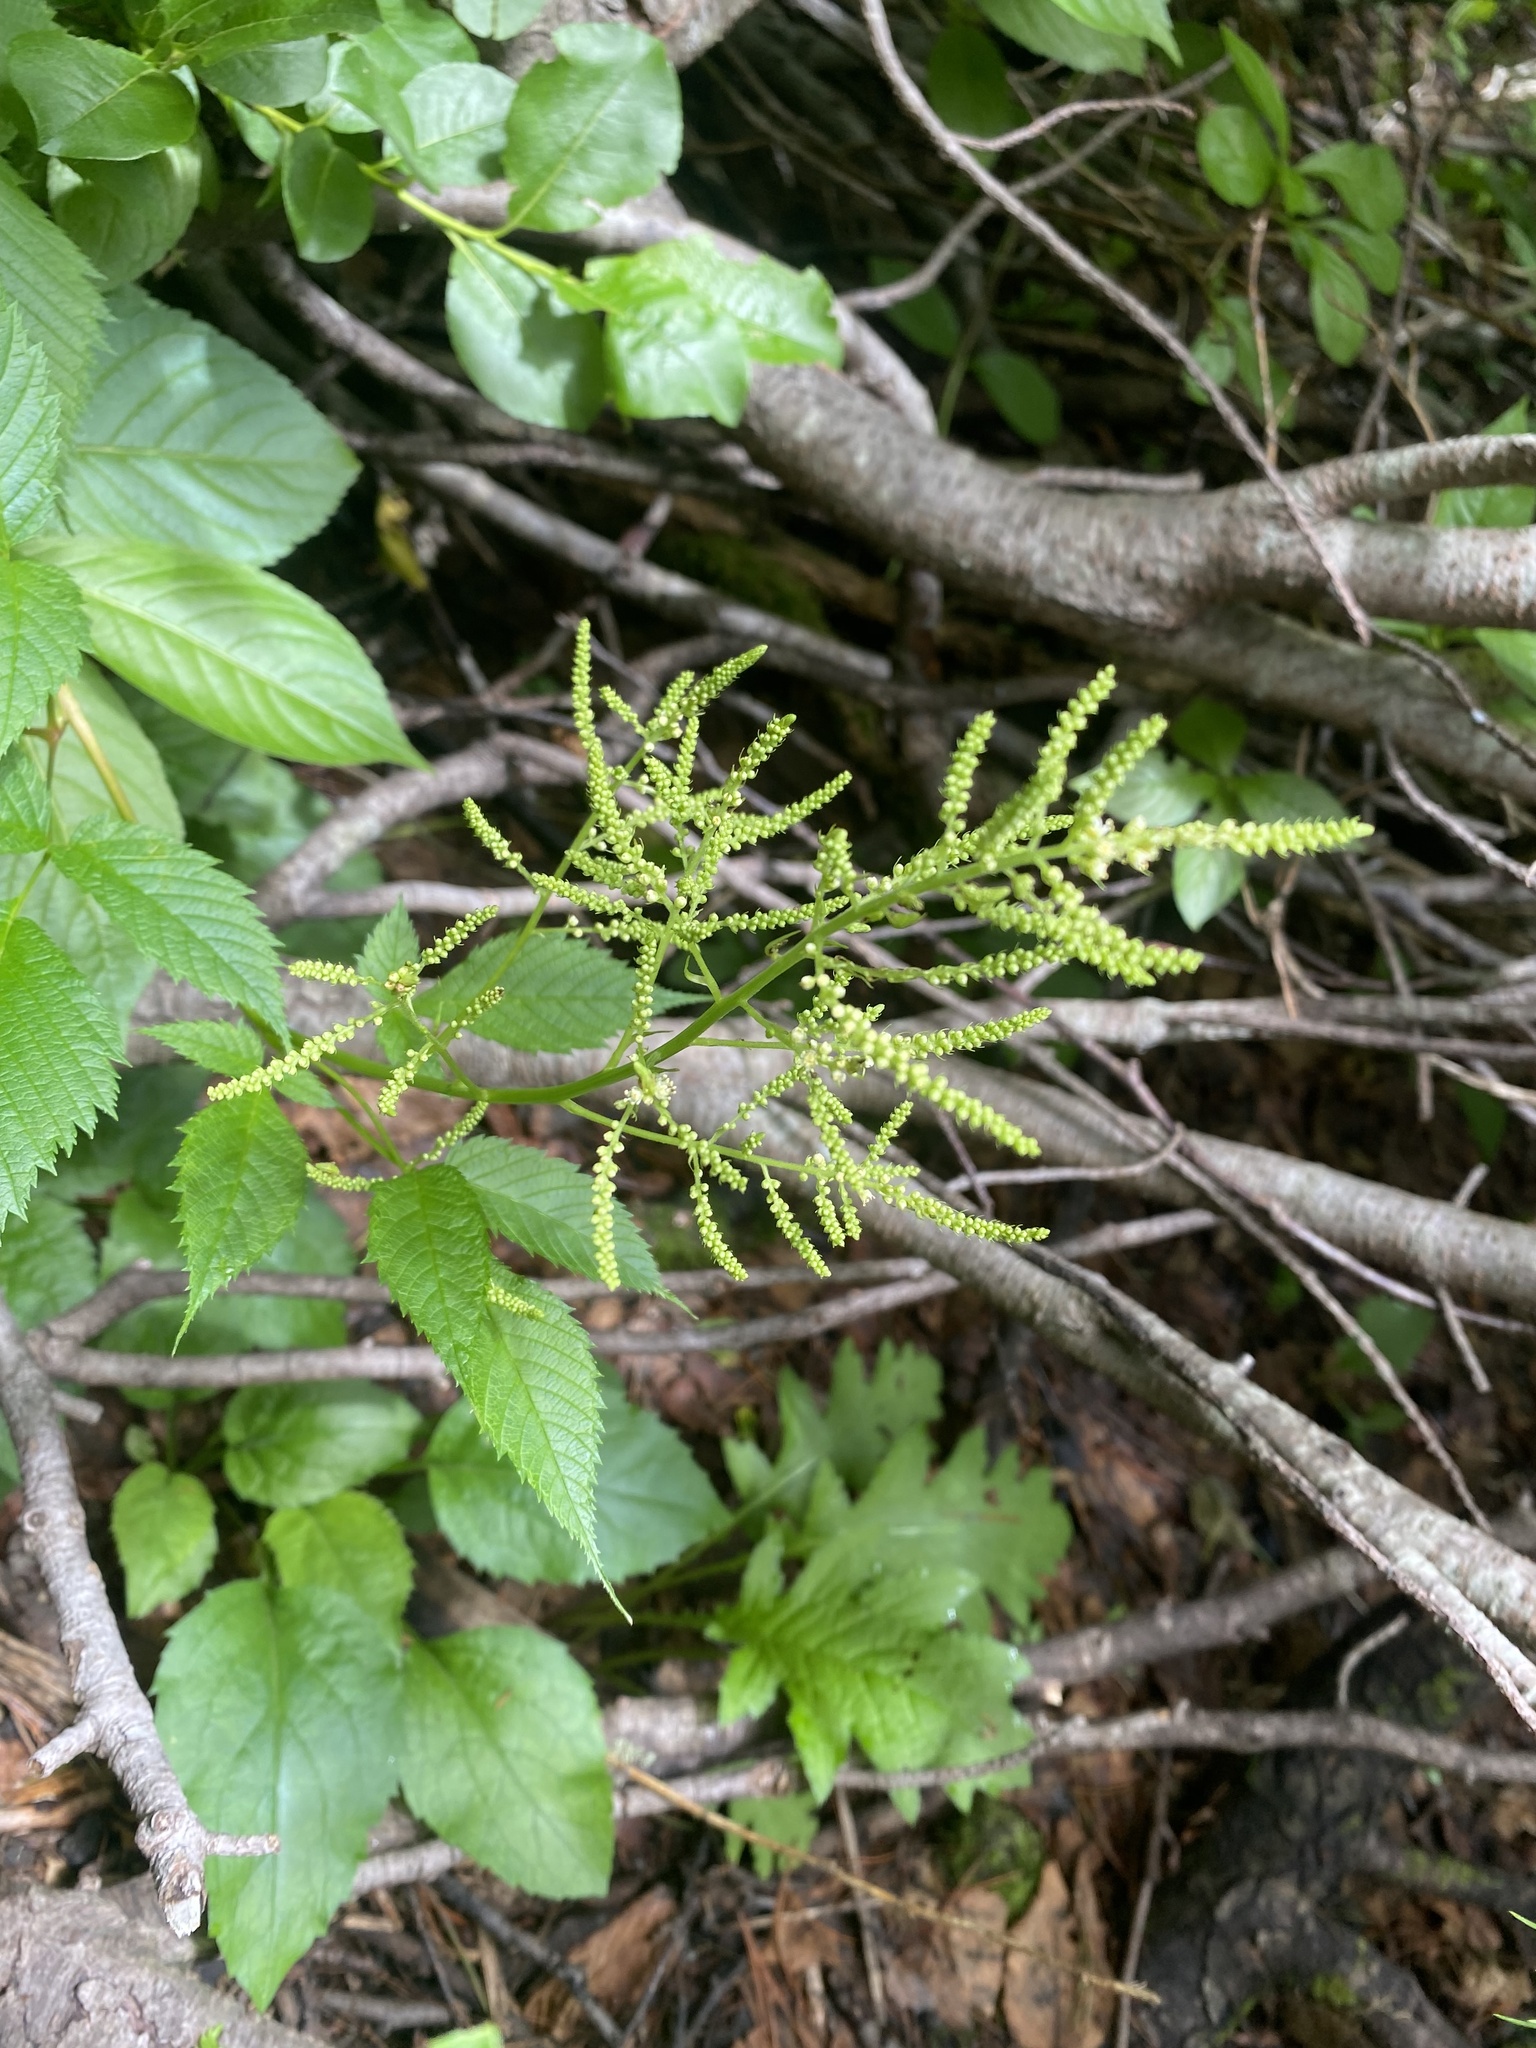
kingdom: Plantae
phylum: Tracheophyta
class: Magnoliopsida
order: Rosales
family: Rosaceae
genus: Aruncus
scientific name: Aruncus dioicus
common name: Buck's-beard
